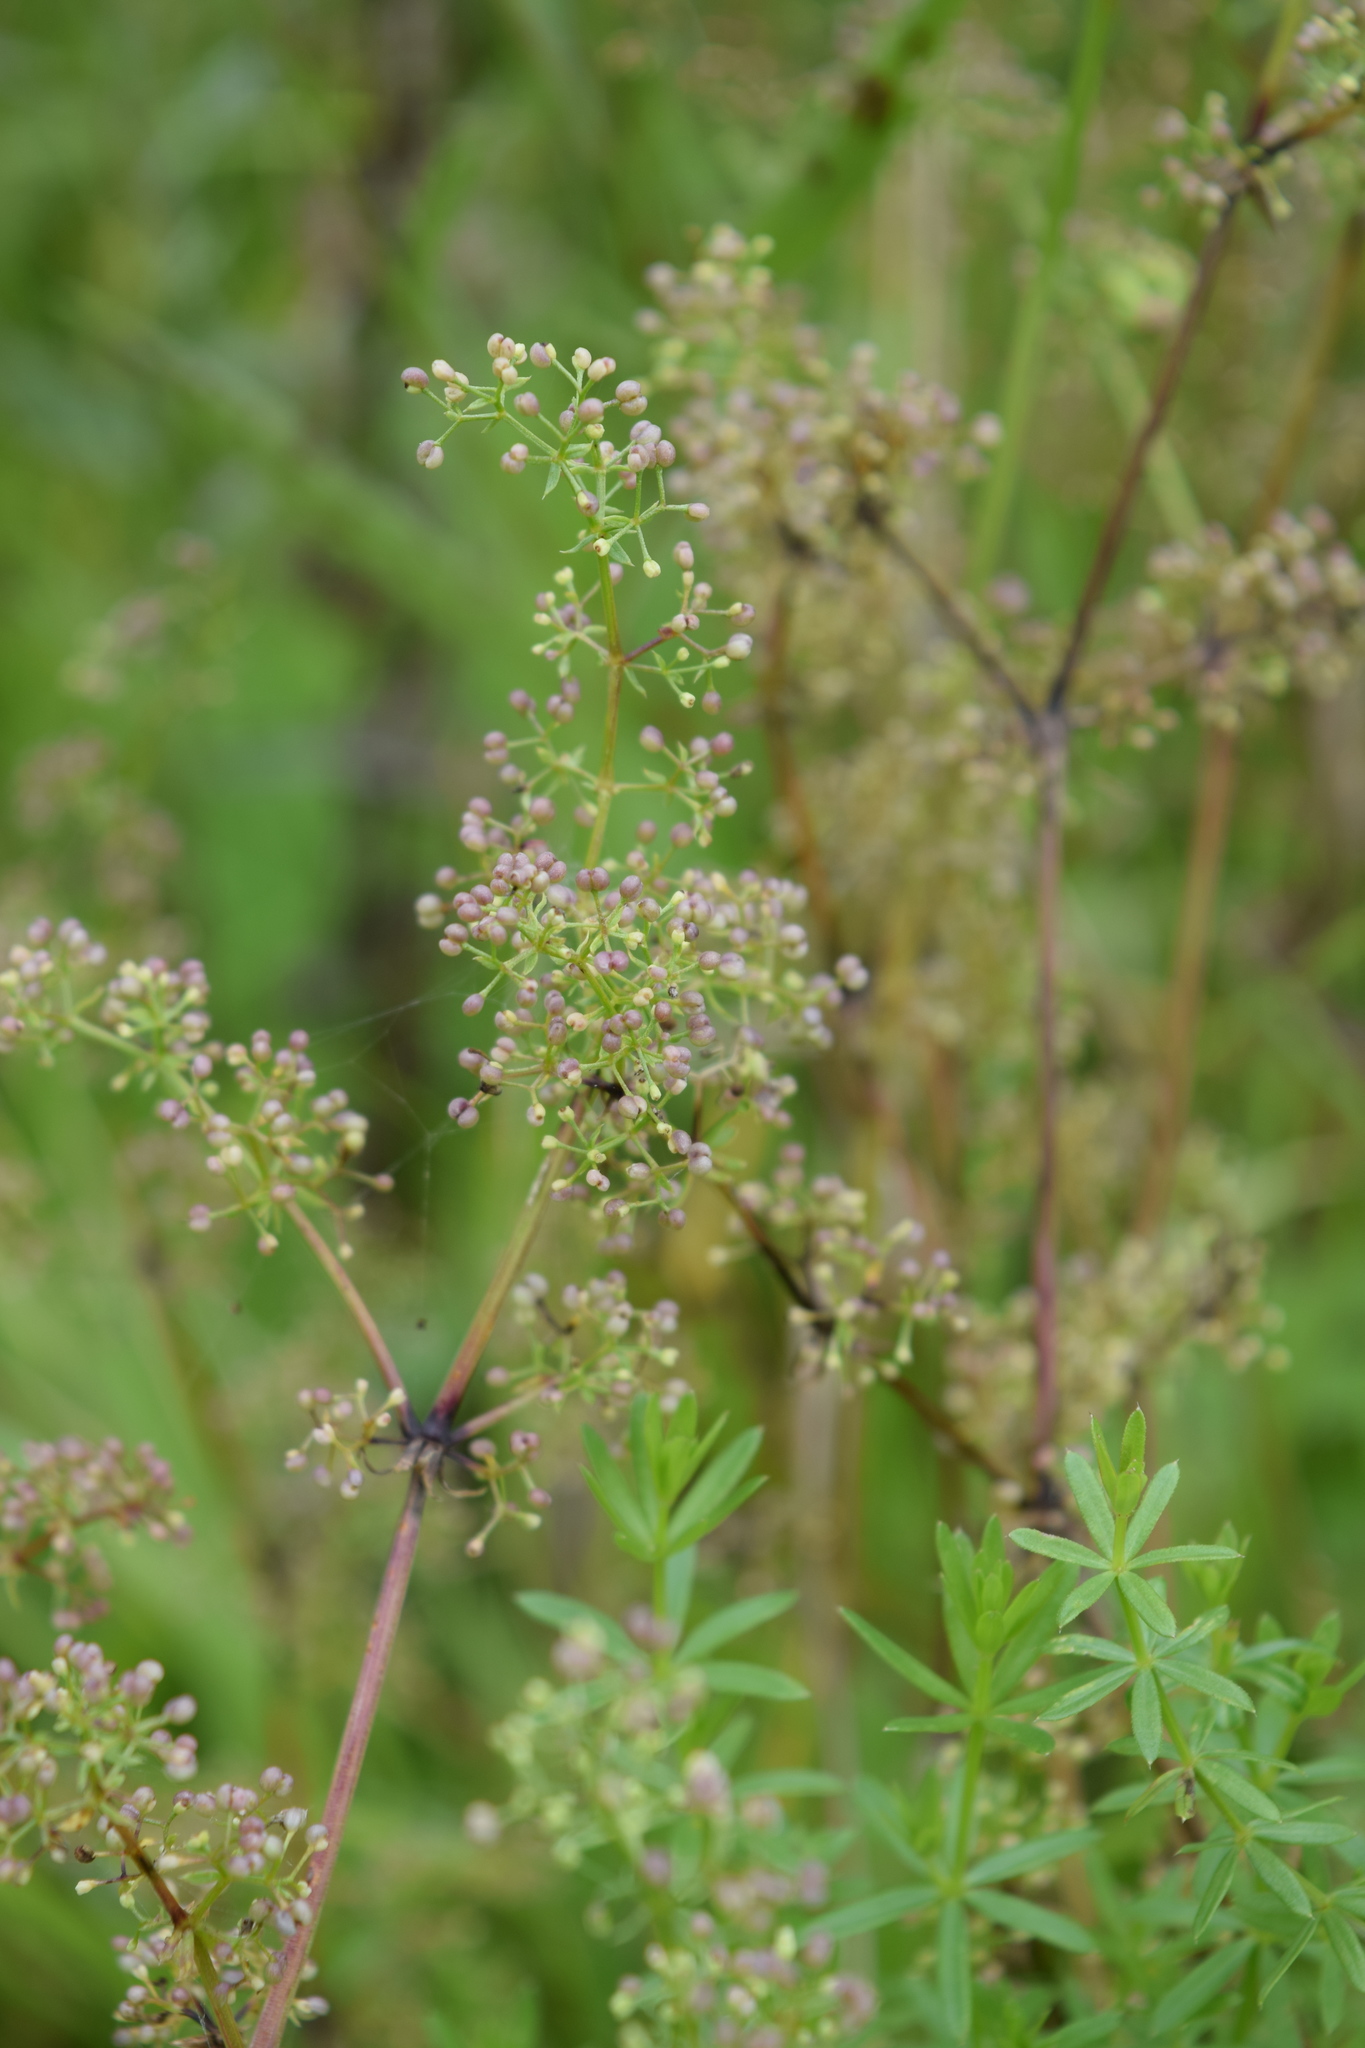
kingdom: Plantae
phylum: Tracheophyta
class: Magnoliopsida
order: Gentianales
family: Rubiaceae
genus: Galium
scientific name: Galium mollugo
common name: Hedge bedstraw
